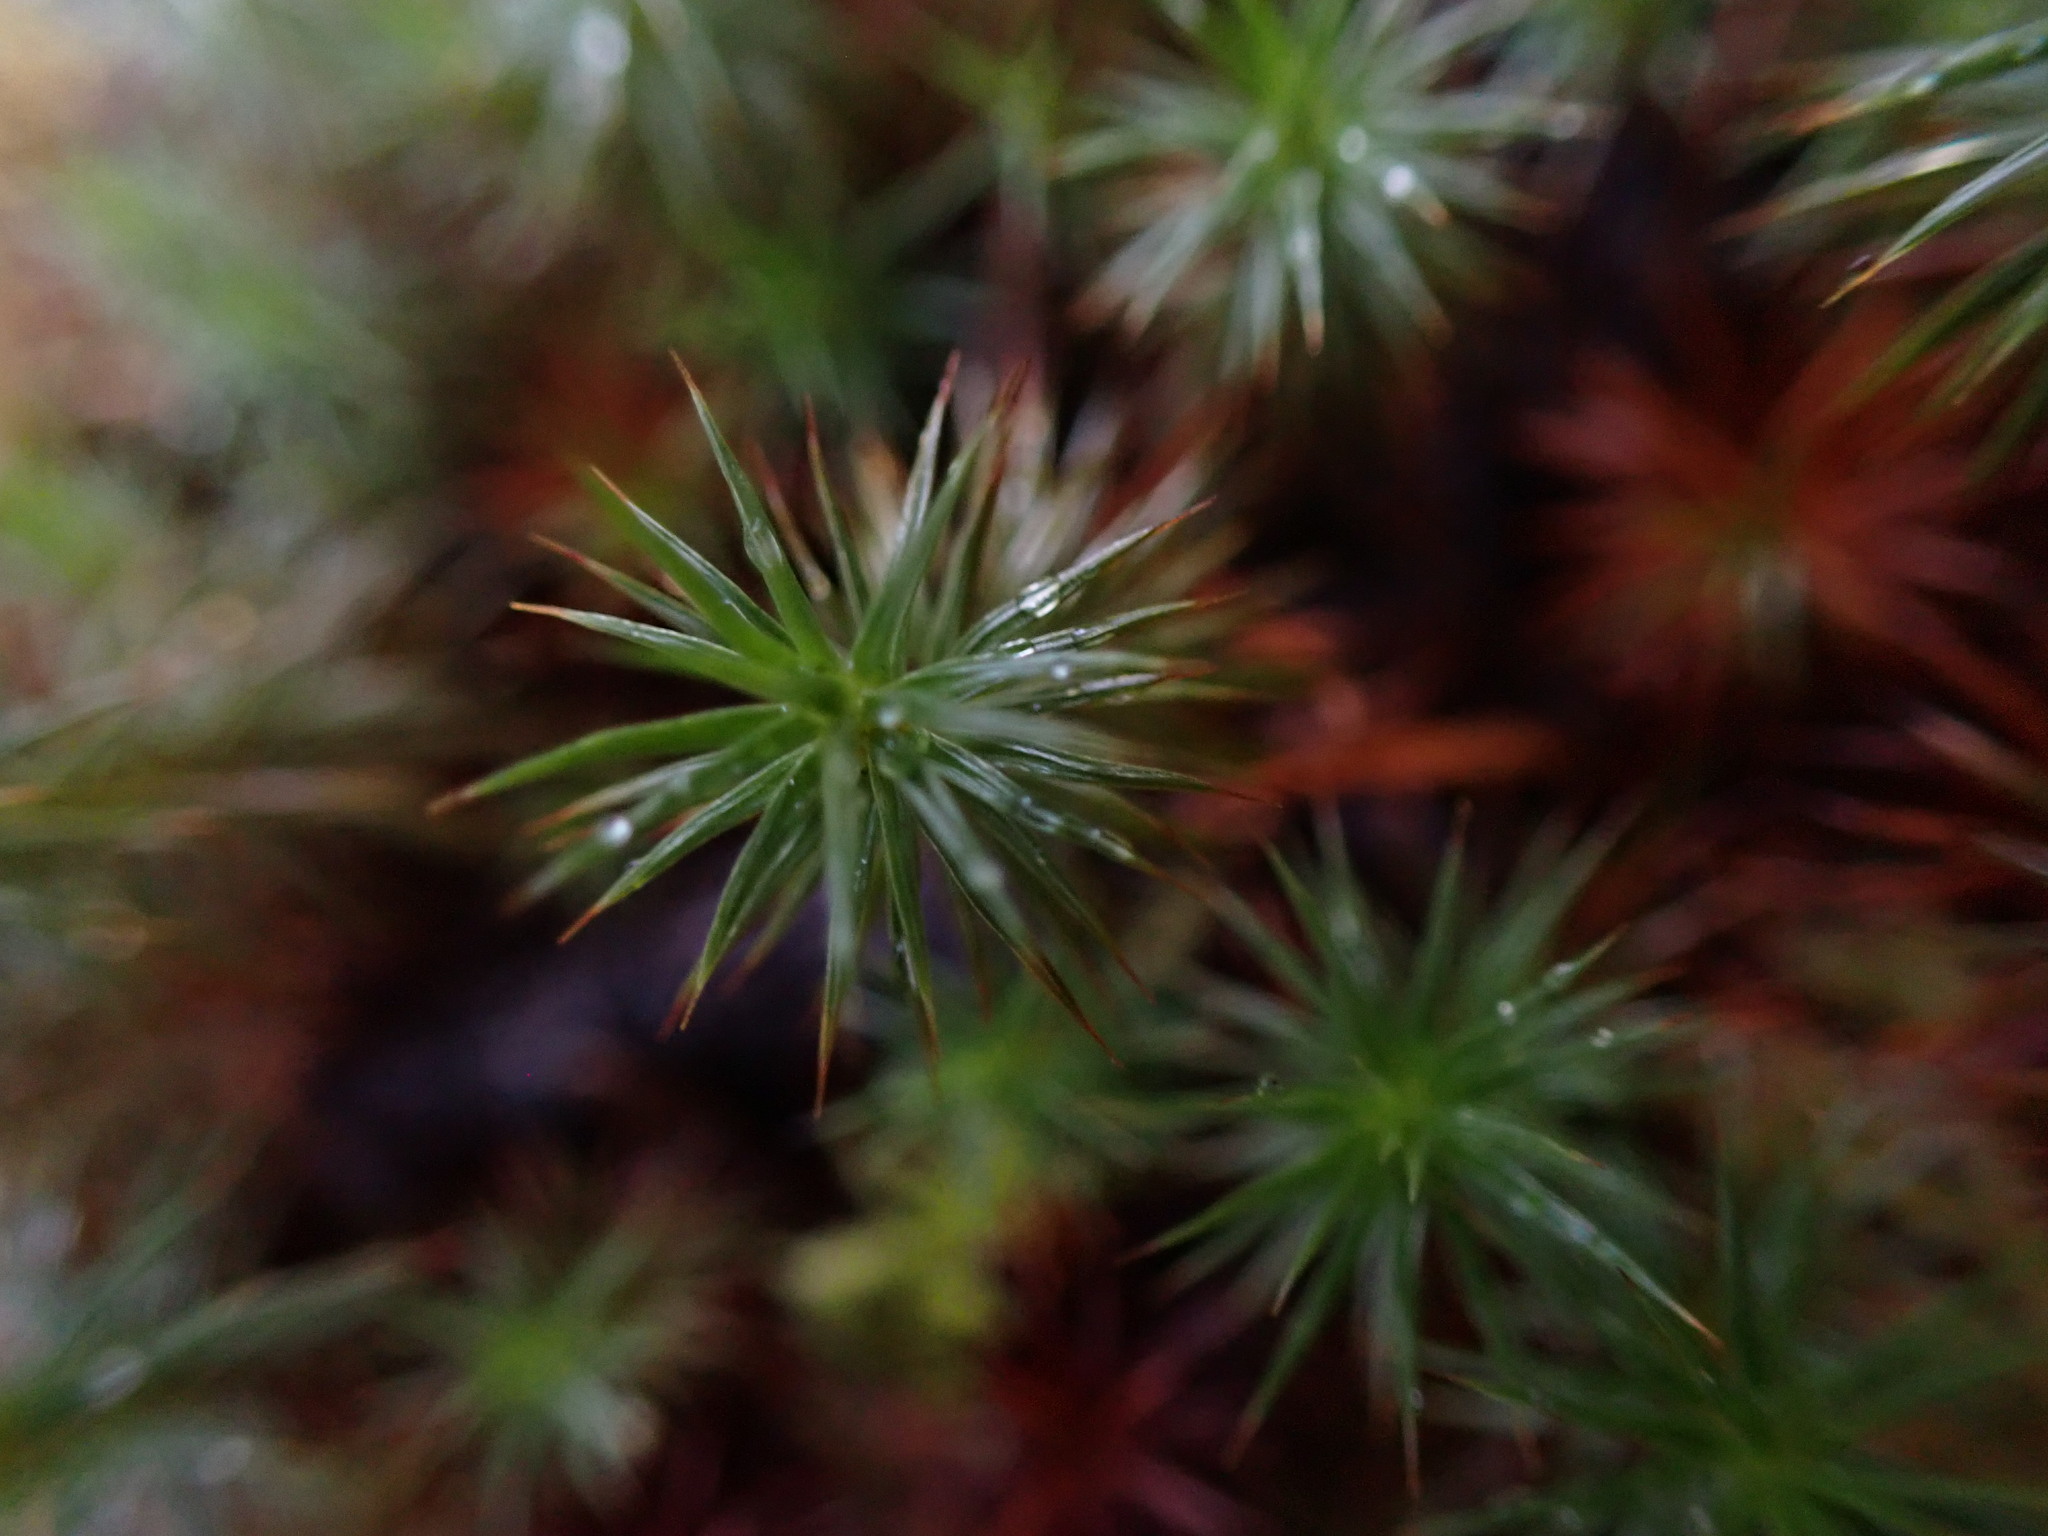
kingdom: Plantae
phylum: Bryophyta
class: Polytrichopsida
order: Polytrichales
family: Polytrichaceae
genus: Polytrichum
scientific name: Polytrichum juniperinum
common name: Juniper haircap moss
